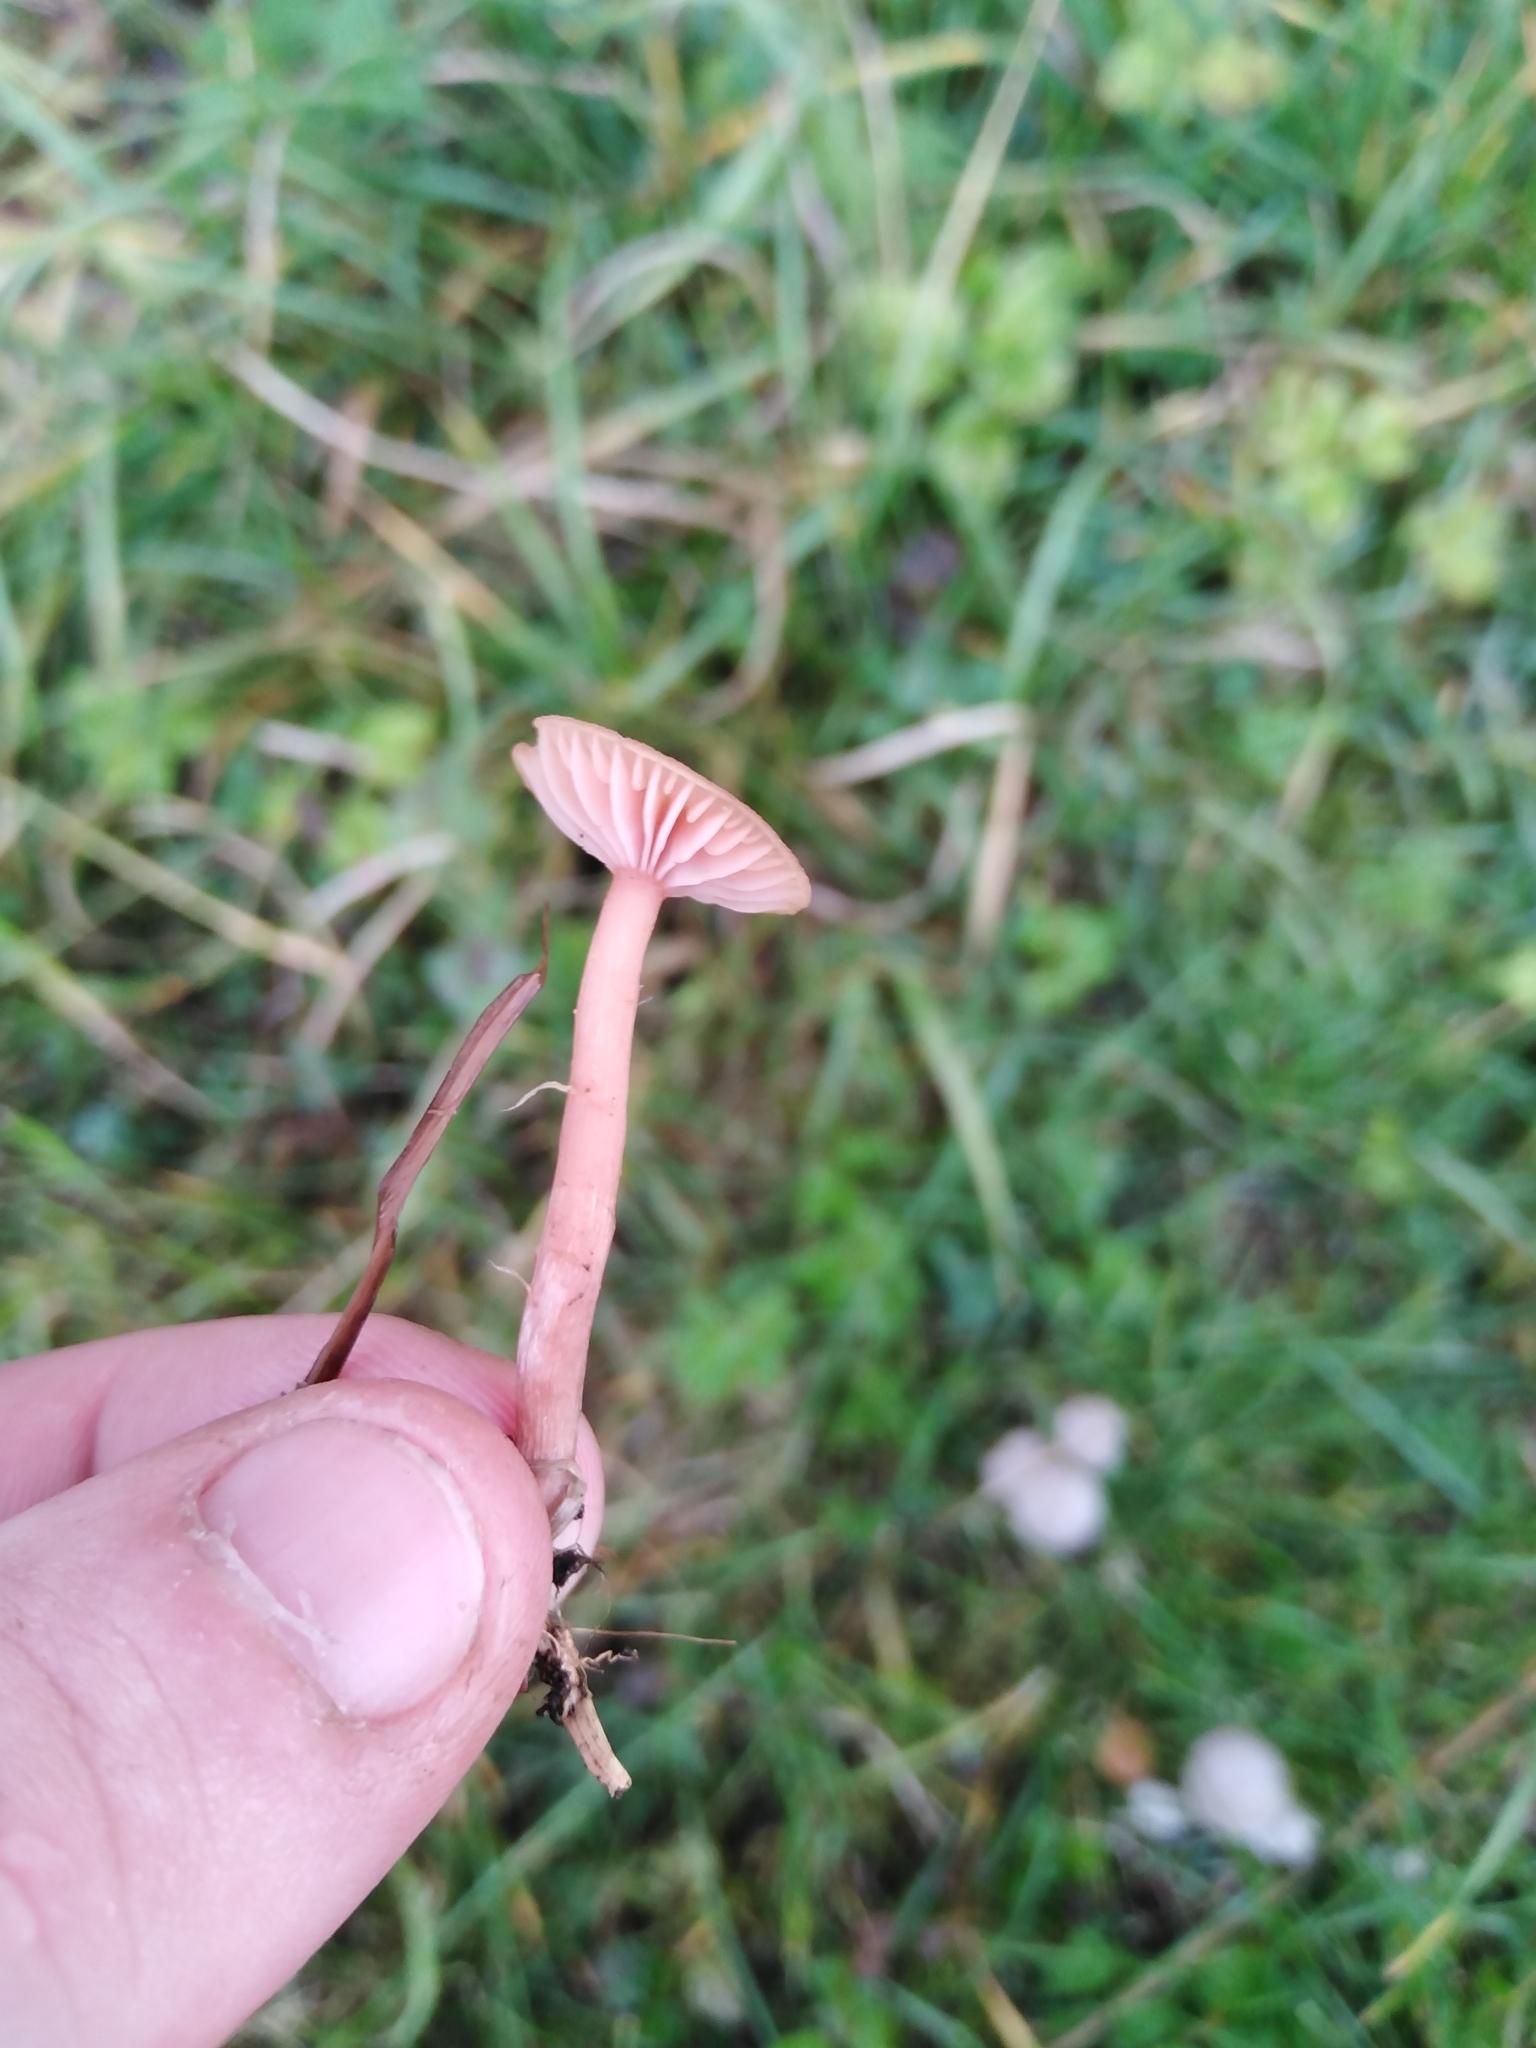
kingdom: Fungi
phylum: Basidiomycota
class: Agaricomycetes
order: Agaricales
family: Hydnangiaceae
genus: Laccaria
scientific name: Laccaria laccata
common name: Deceiver
